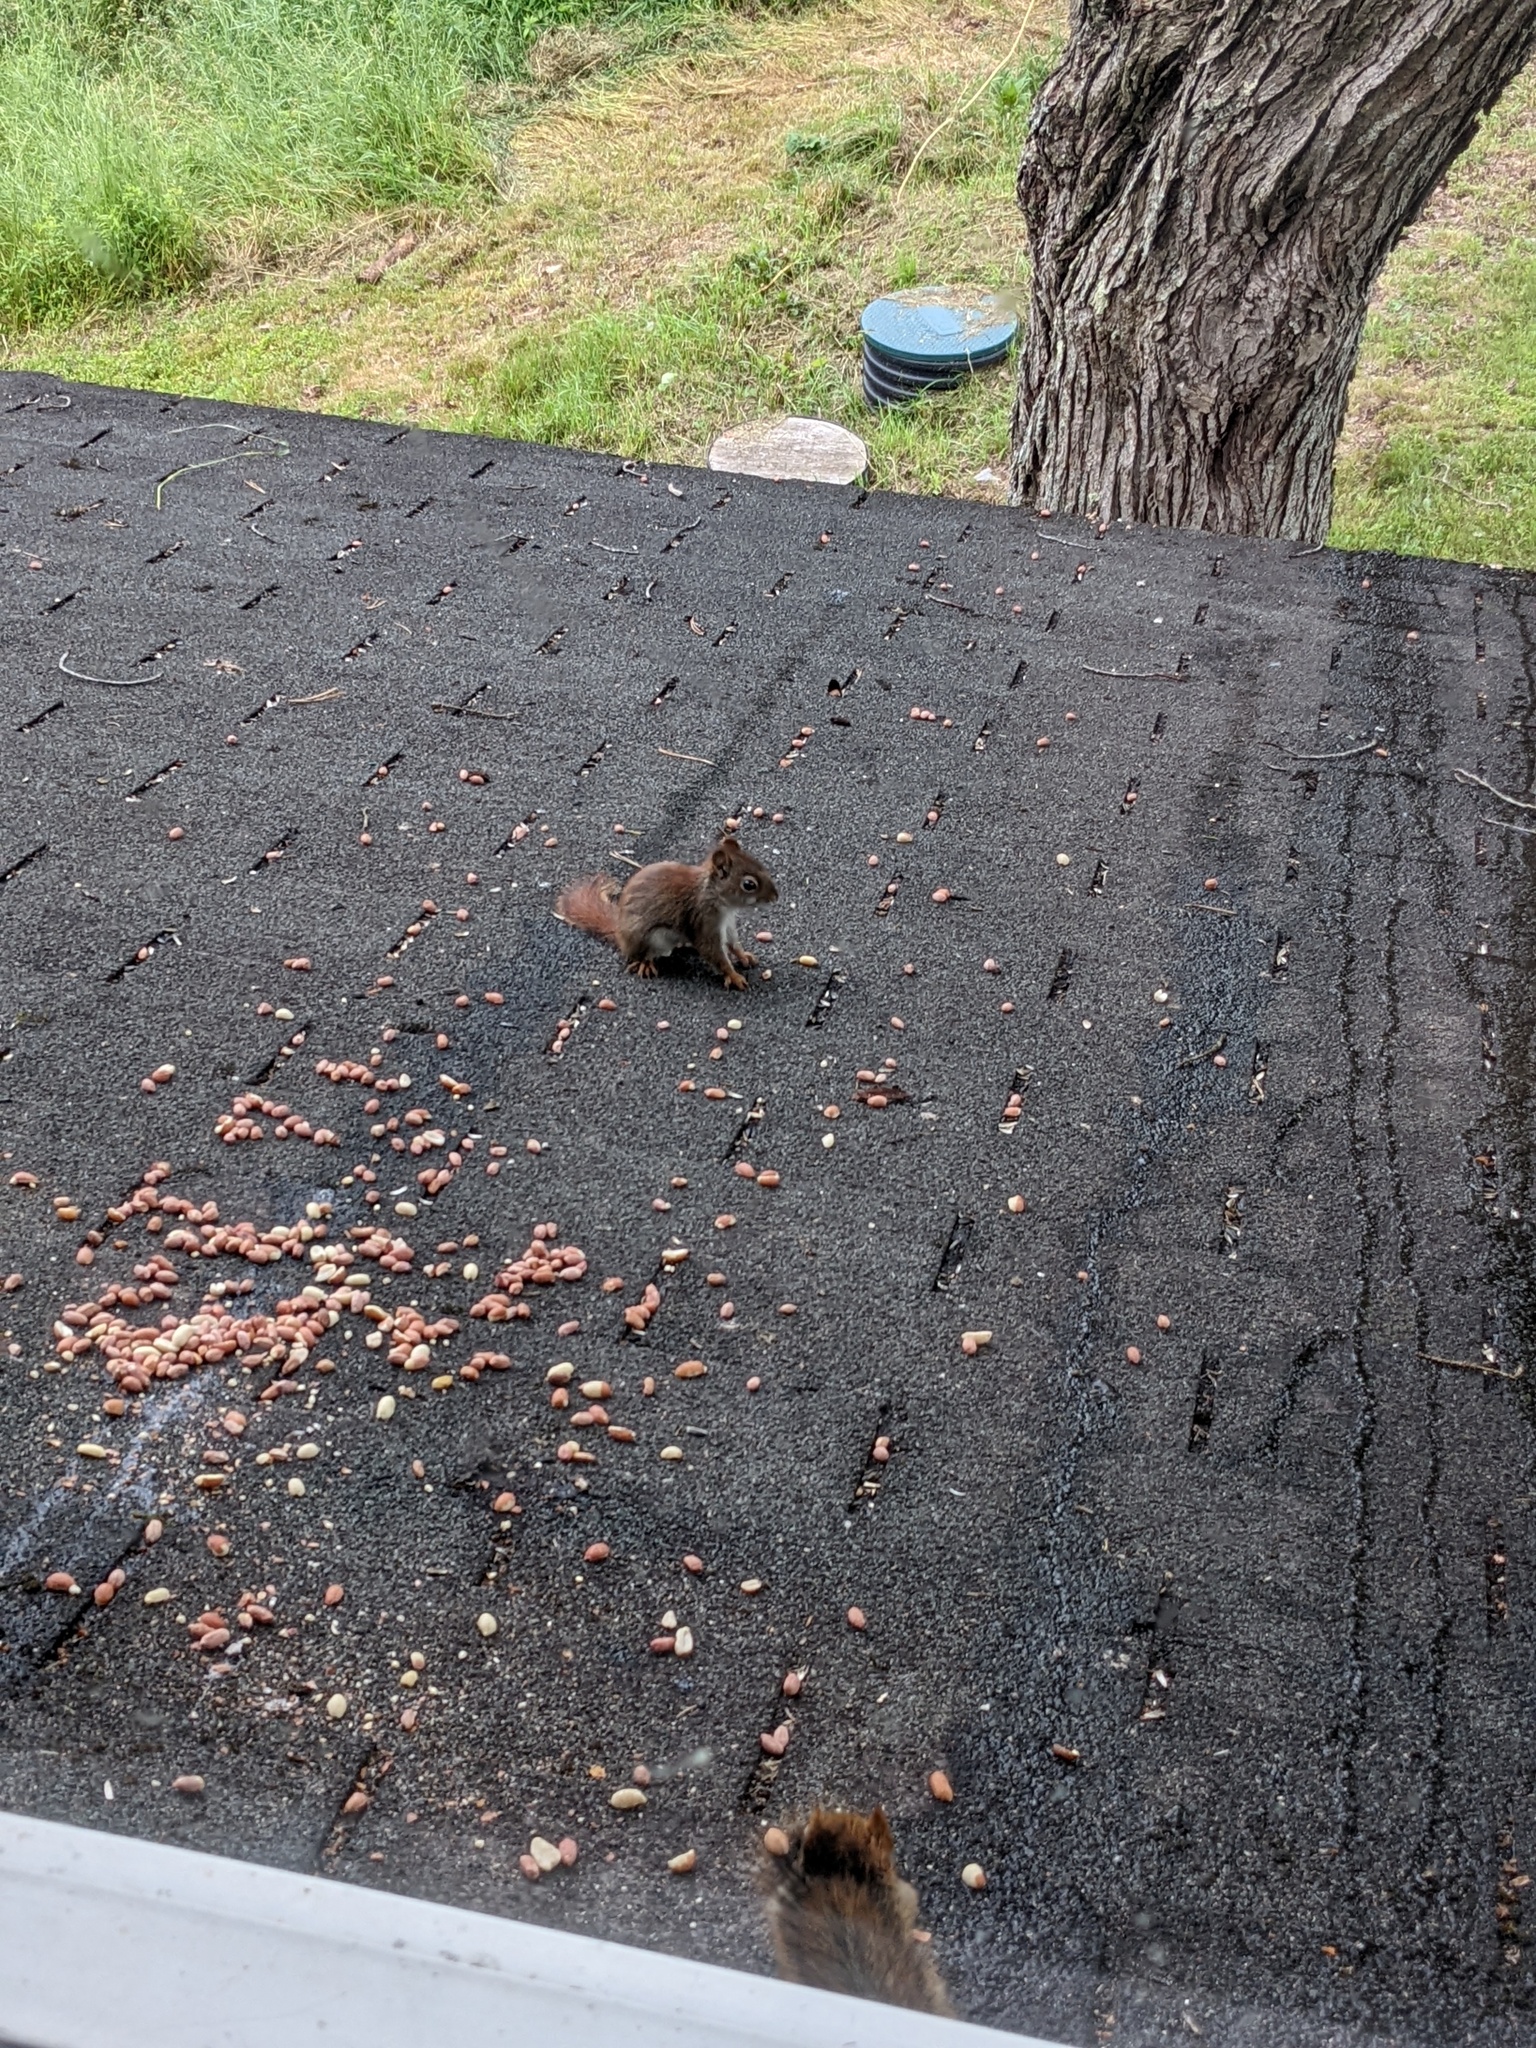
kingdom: Animalia
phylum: Chordata
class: Mammalia
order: Rodentia
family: Sciuridae
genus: Tamiasciurus
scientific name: Tamiasciurus hudsonicus
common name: Red squirrel
